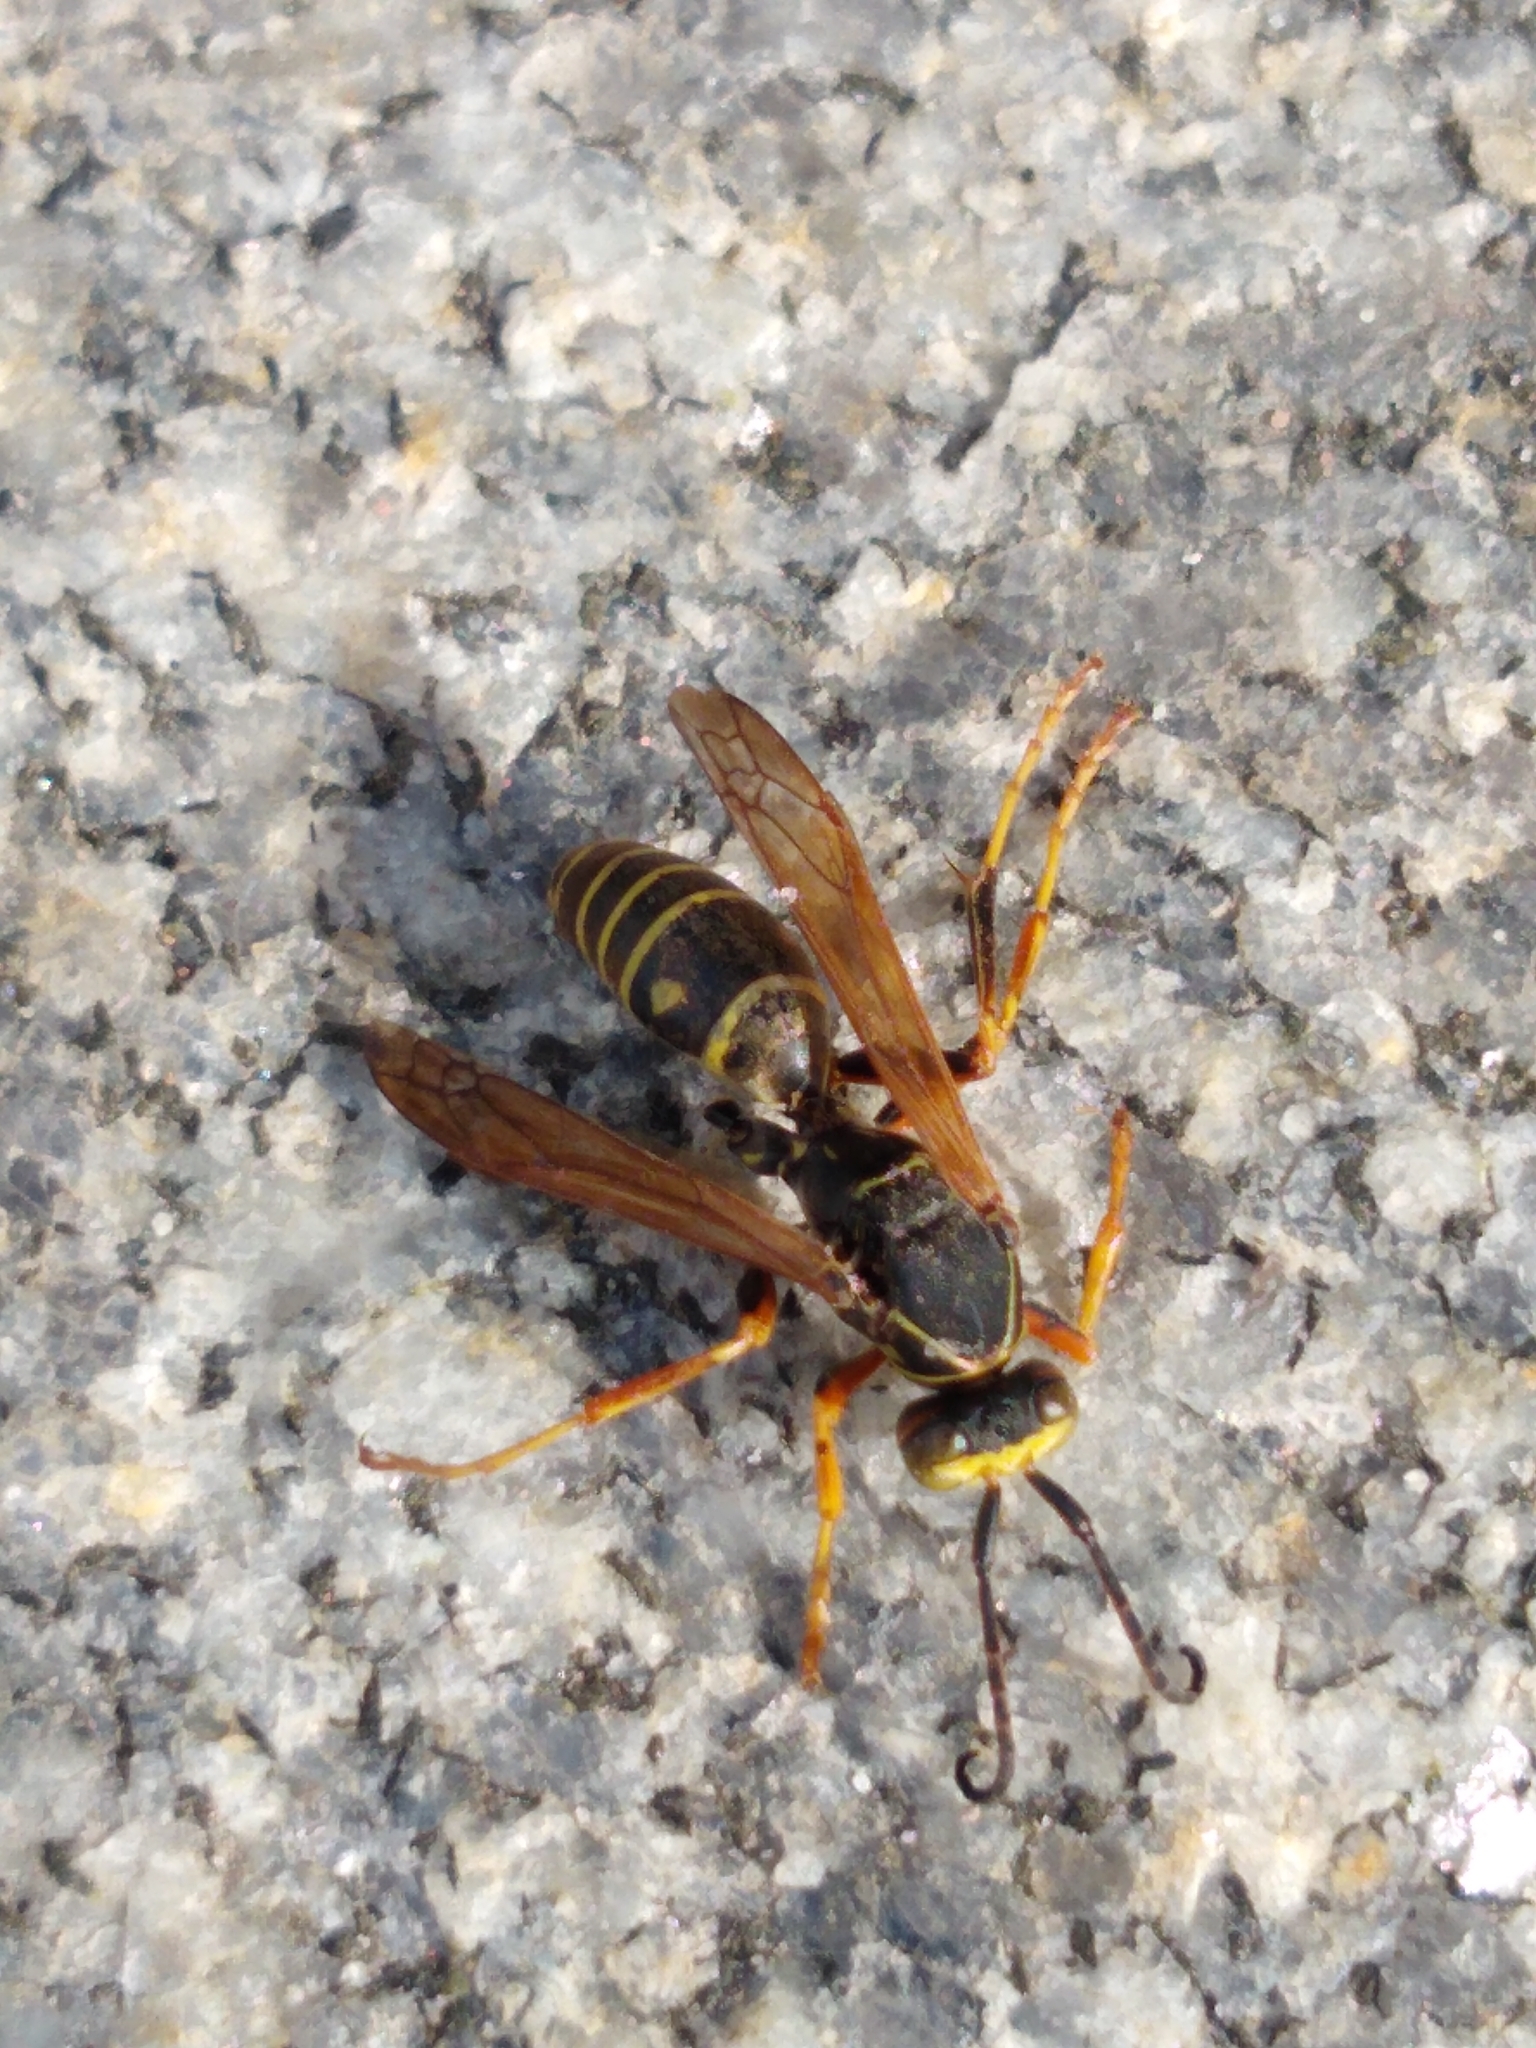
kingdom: Animalia
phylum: Arthropoda
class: Insecta
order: Hymenoptera
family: Eumenidae
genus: Polistes
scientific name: Polistes fuscatus
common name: Dark paper wasp
